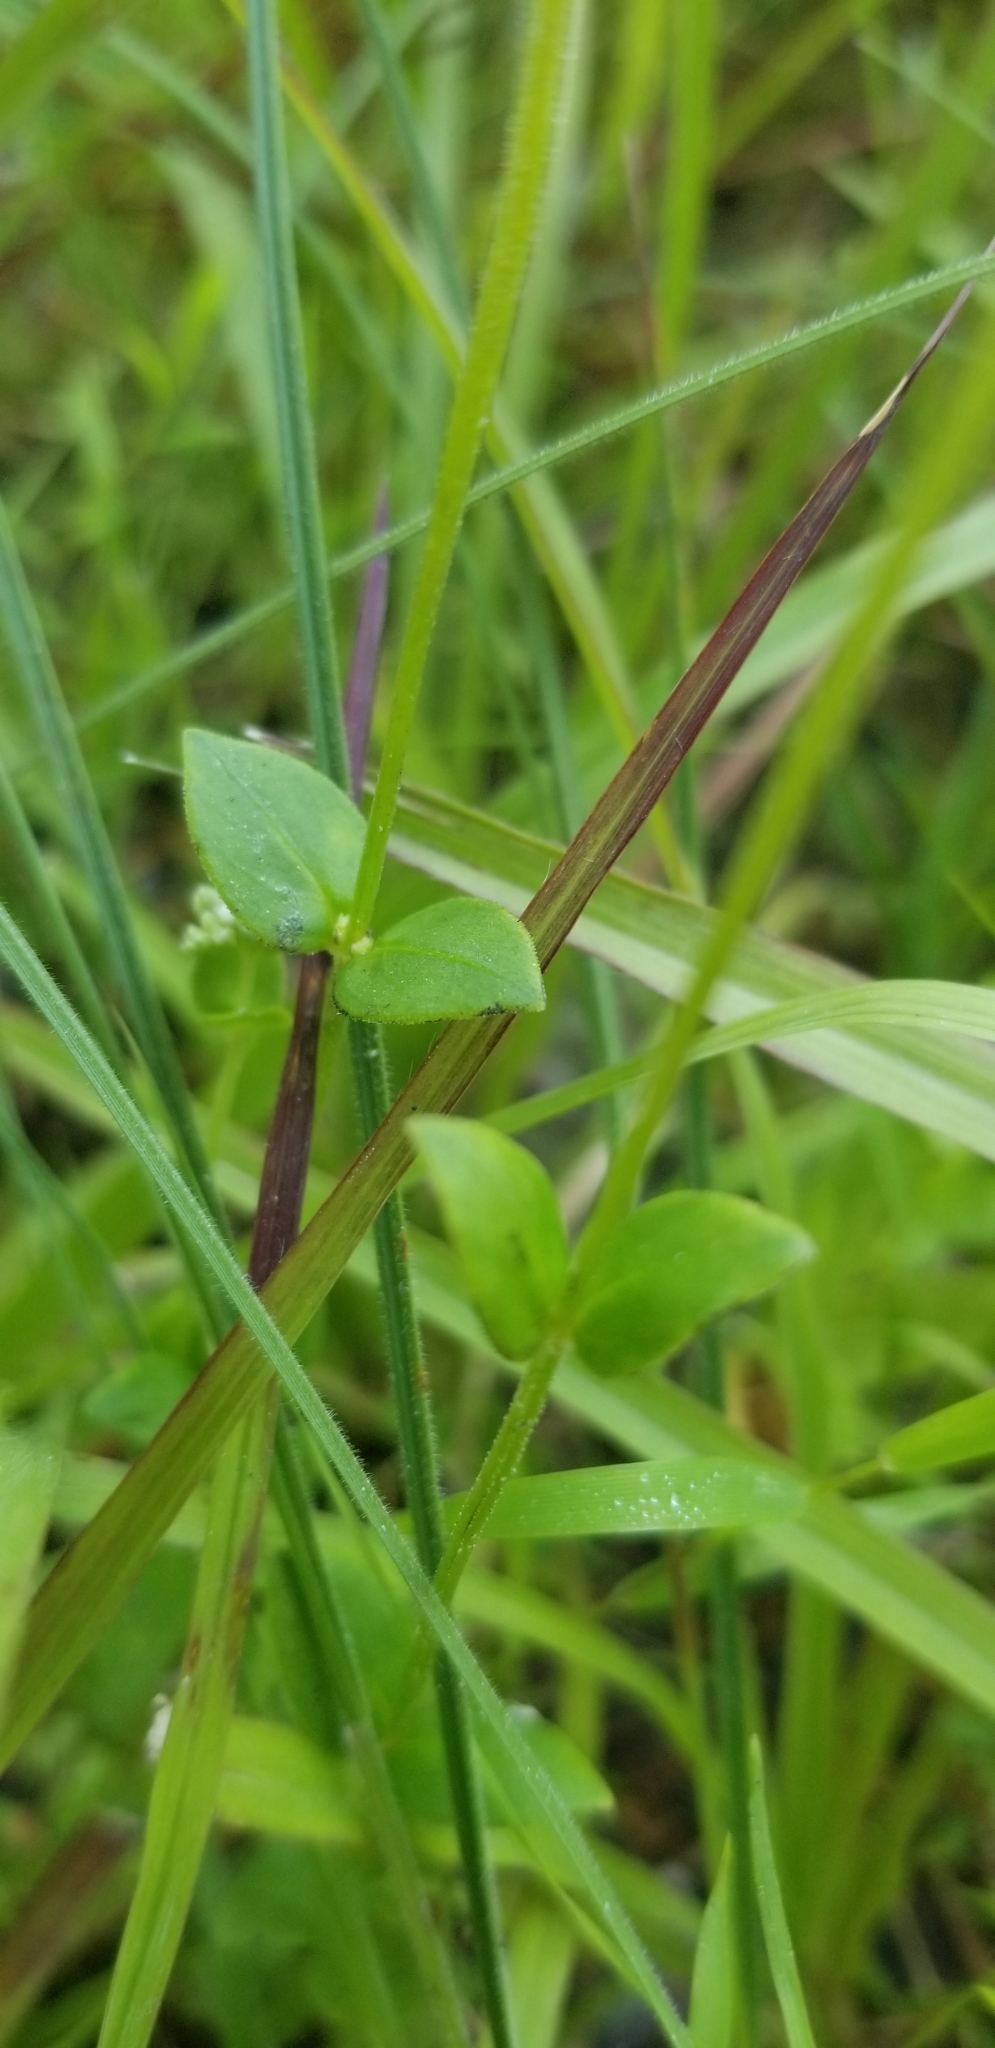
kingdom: Plantae
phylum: Tracheophyta
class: Magnoliopsida
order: Gentianales
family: Loganiaceae
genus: Mitreola
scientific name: Mitreola sessilifolia
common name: Swamp hornpod
